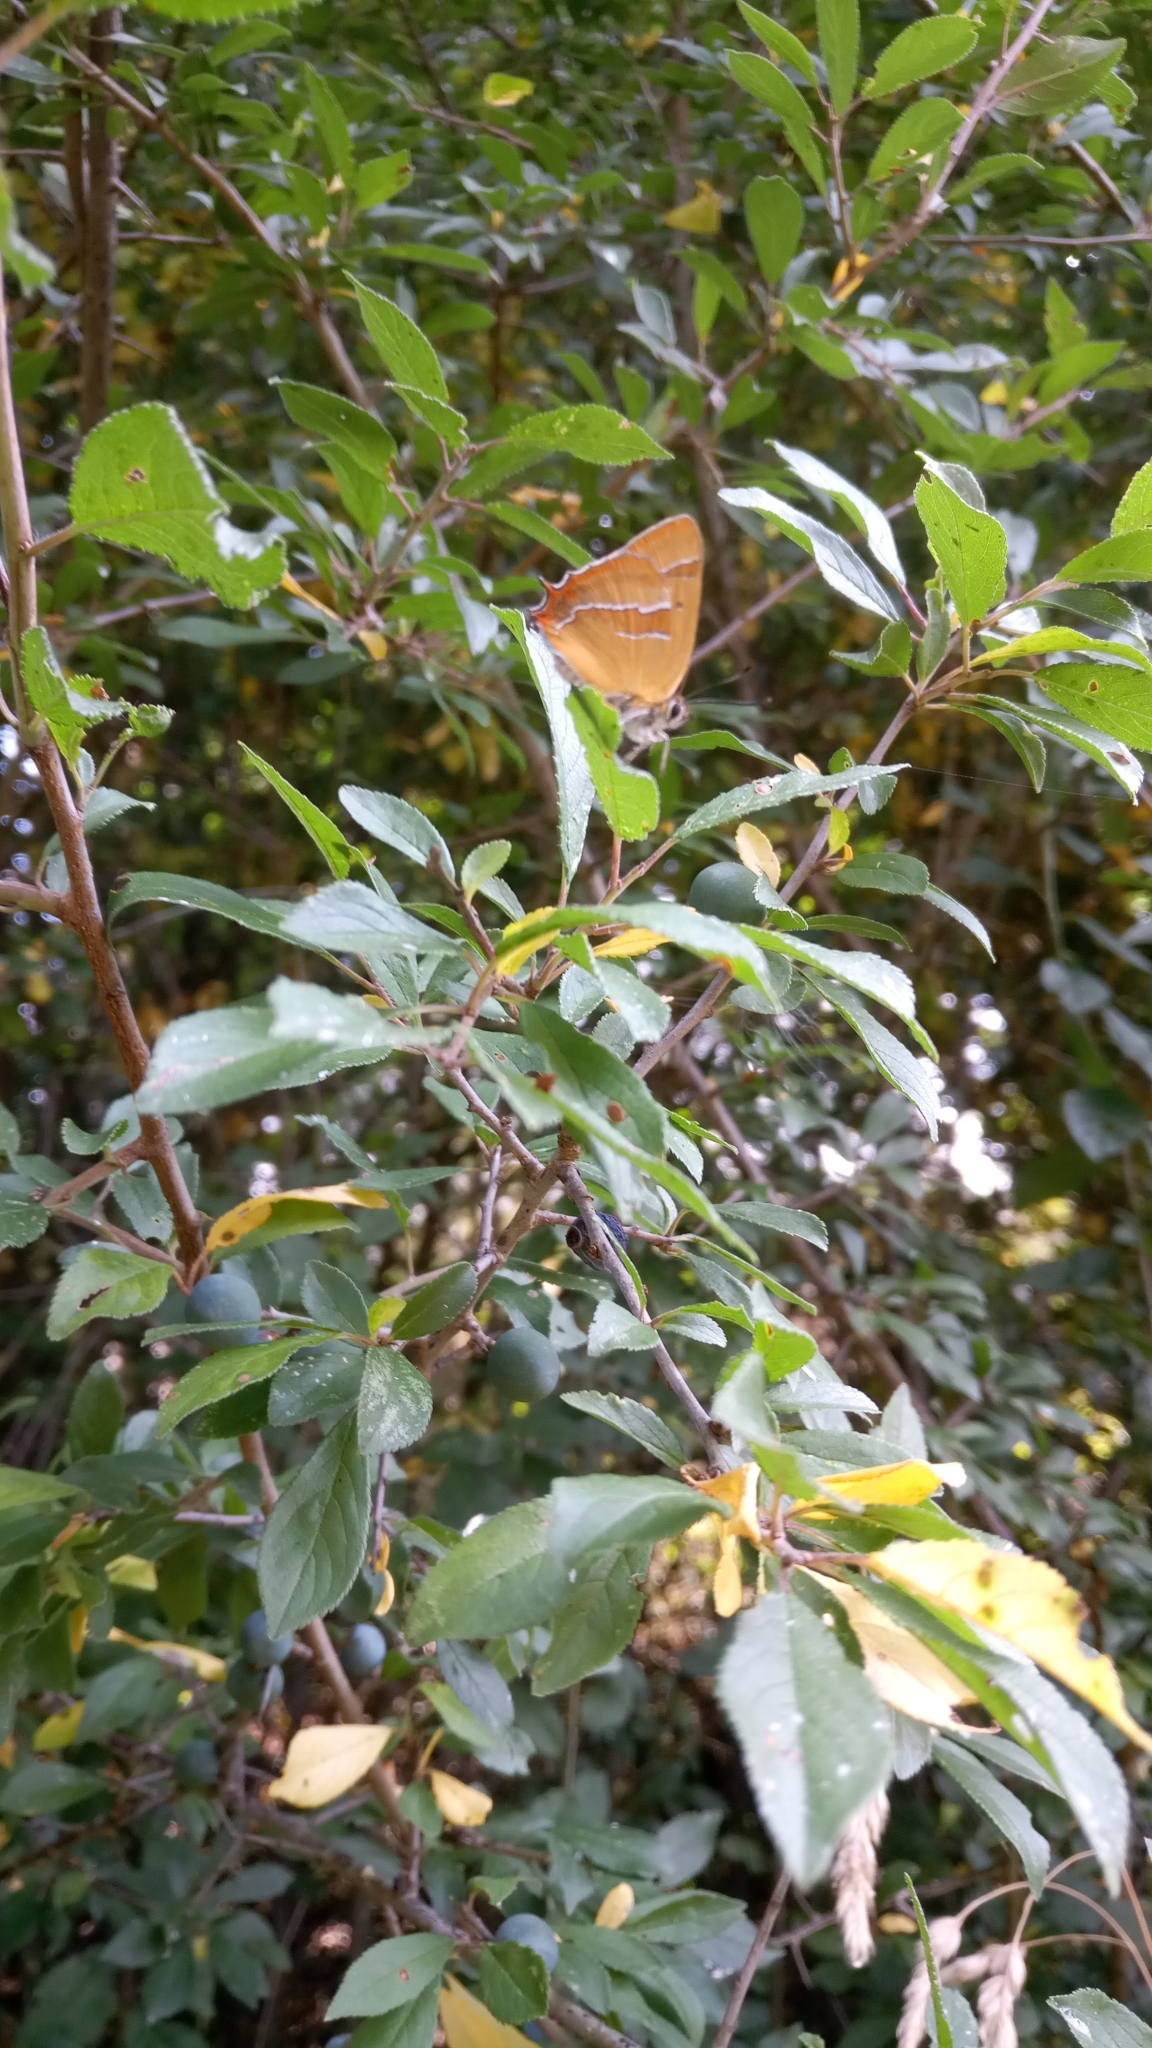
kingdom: Animalia
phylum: Arthropoda
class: Insecta
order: Lepidoptera
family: Lycaenidae
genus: Thecla
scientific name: Thecla betulae
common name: Brown hairstreak
